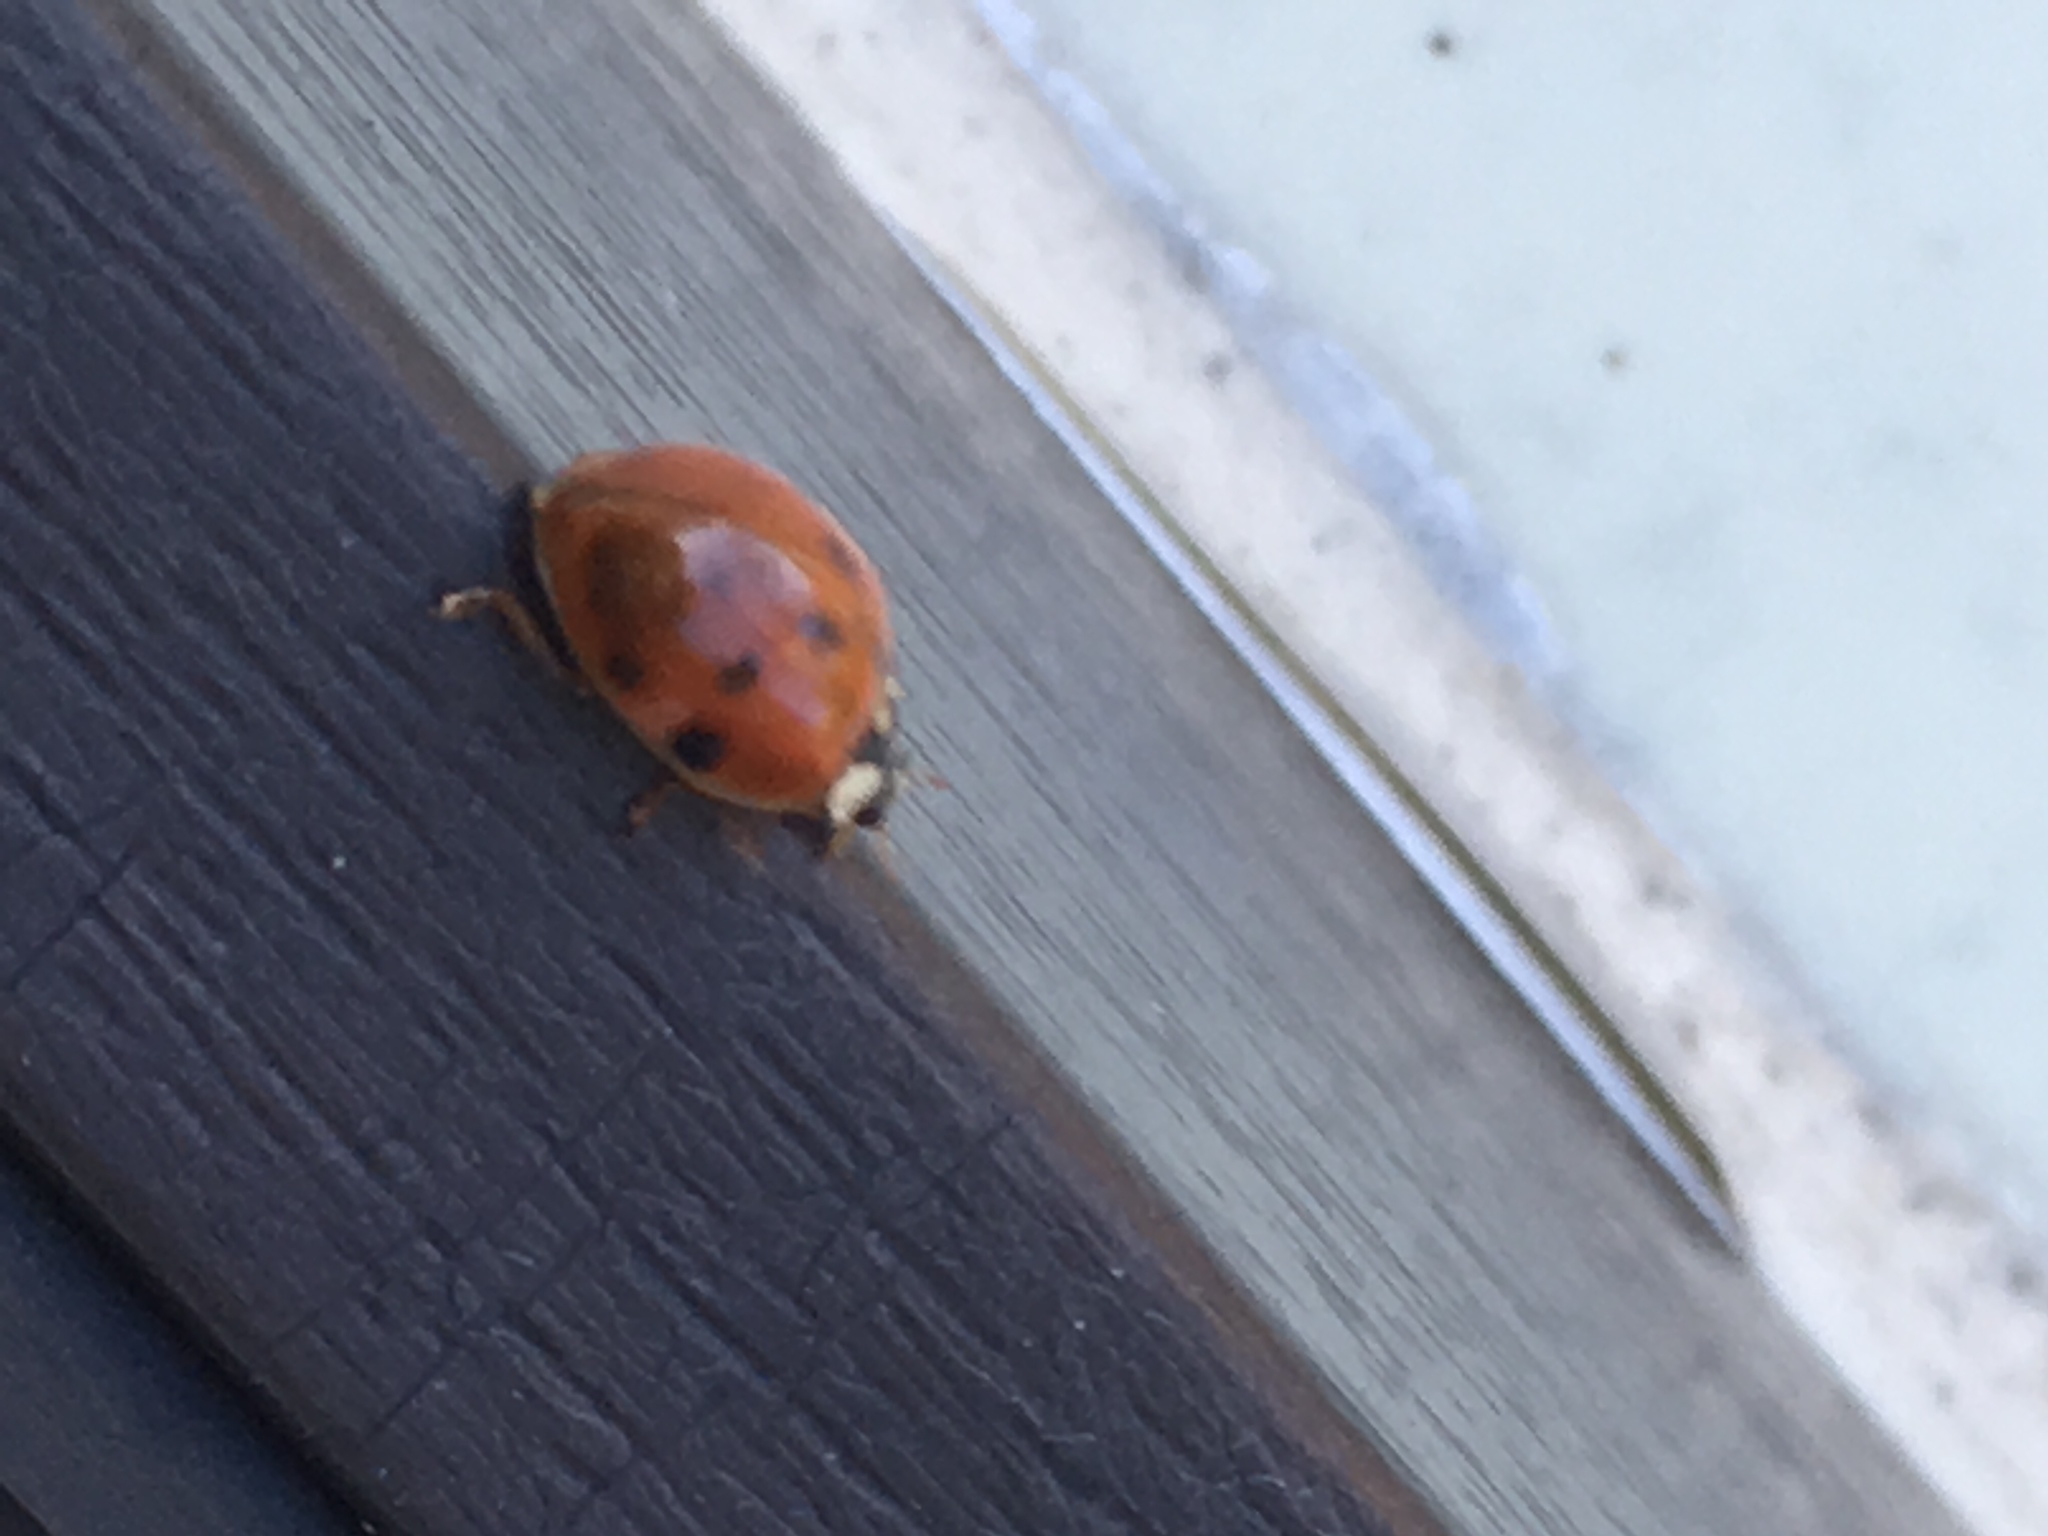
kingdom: Animalia
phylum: Arthropoda
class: Insecta
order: Coleoptera
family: Coccinellidae
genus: Harmonia
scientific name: Harmonia axyridis
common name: Harlequin ladybird
